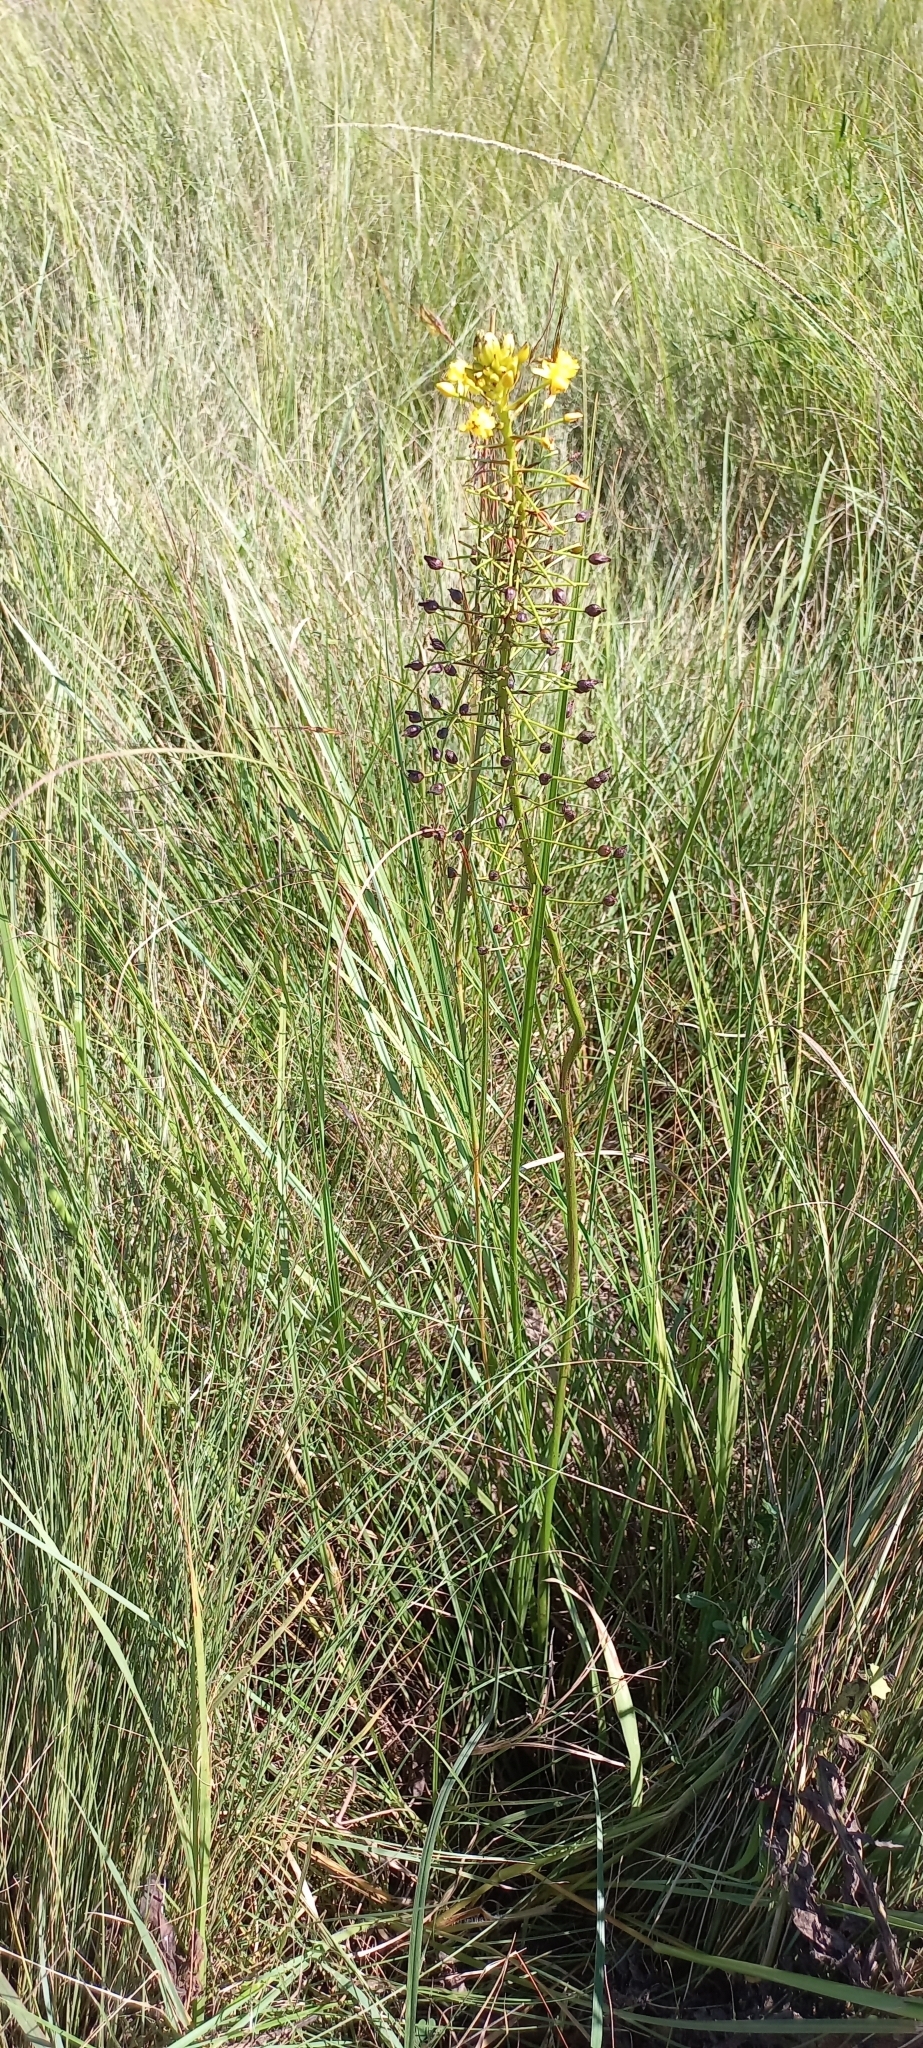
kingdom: Plantae
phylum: Tracheophyta
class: Liliopsida
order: Asparagales
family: Asphodelaceae
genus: Bulbine
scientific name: Bulbine abyssinica
